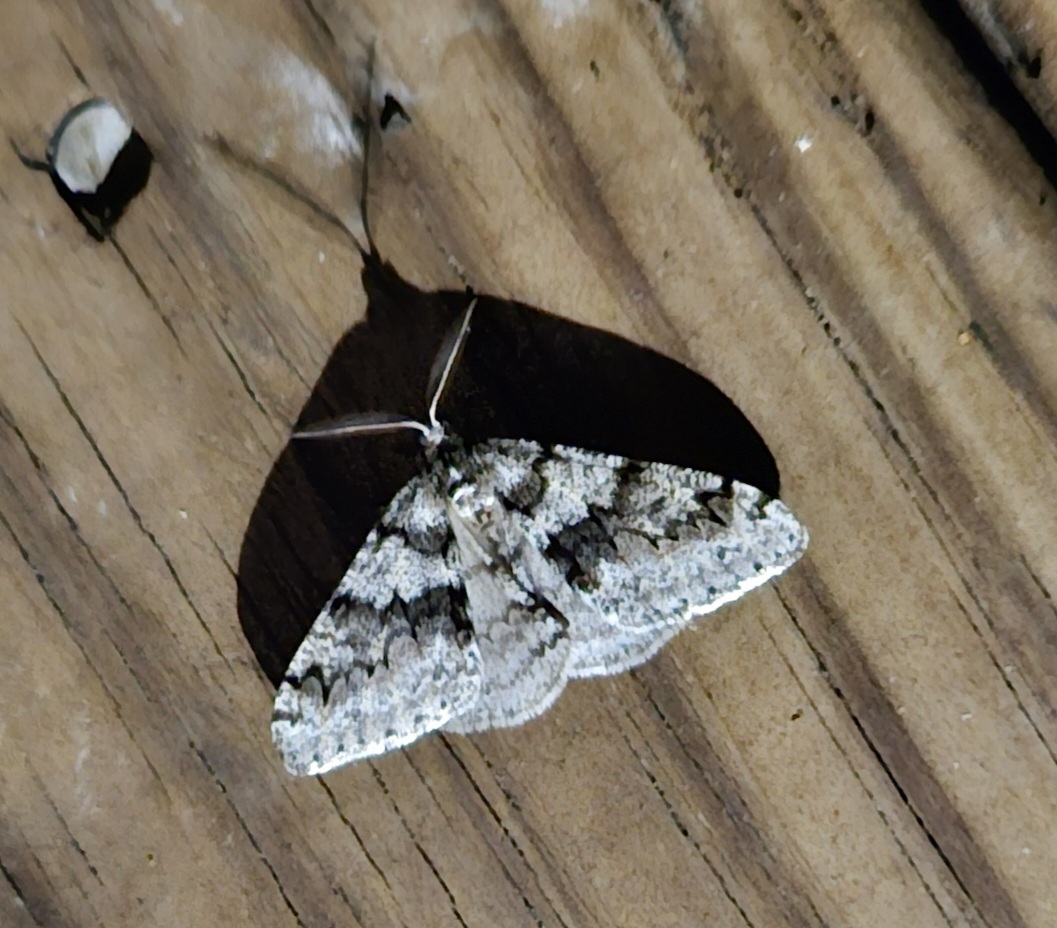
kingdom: Animalia
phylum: Arthropoda
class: Insecta
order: Lepidoptera
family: Geometridae
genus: Phigalia
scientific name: Phigalia denticulata
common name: Toothed phigalia
